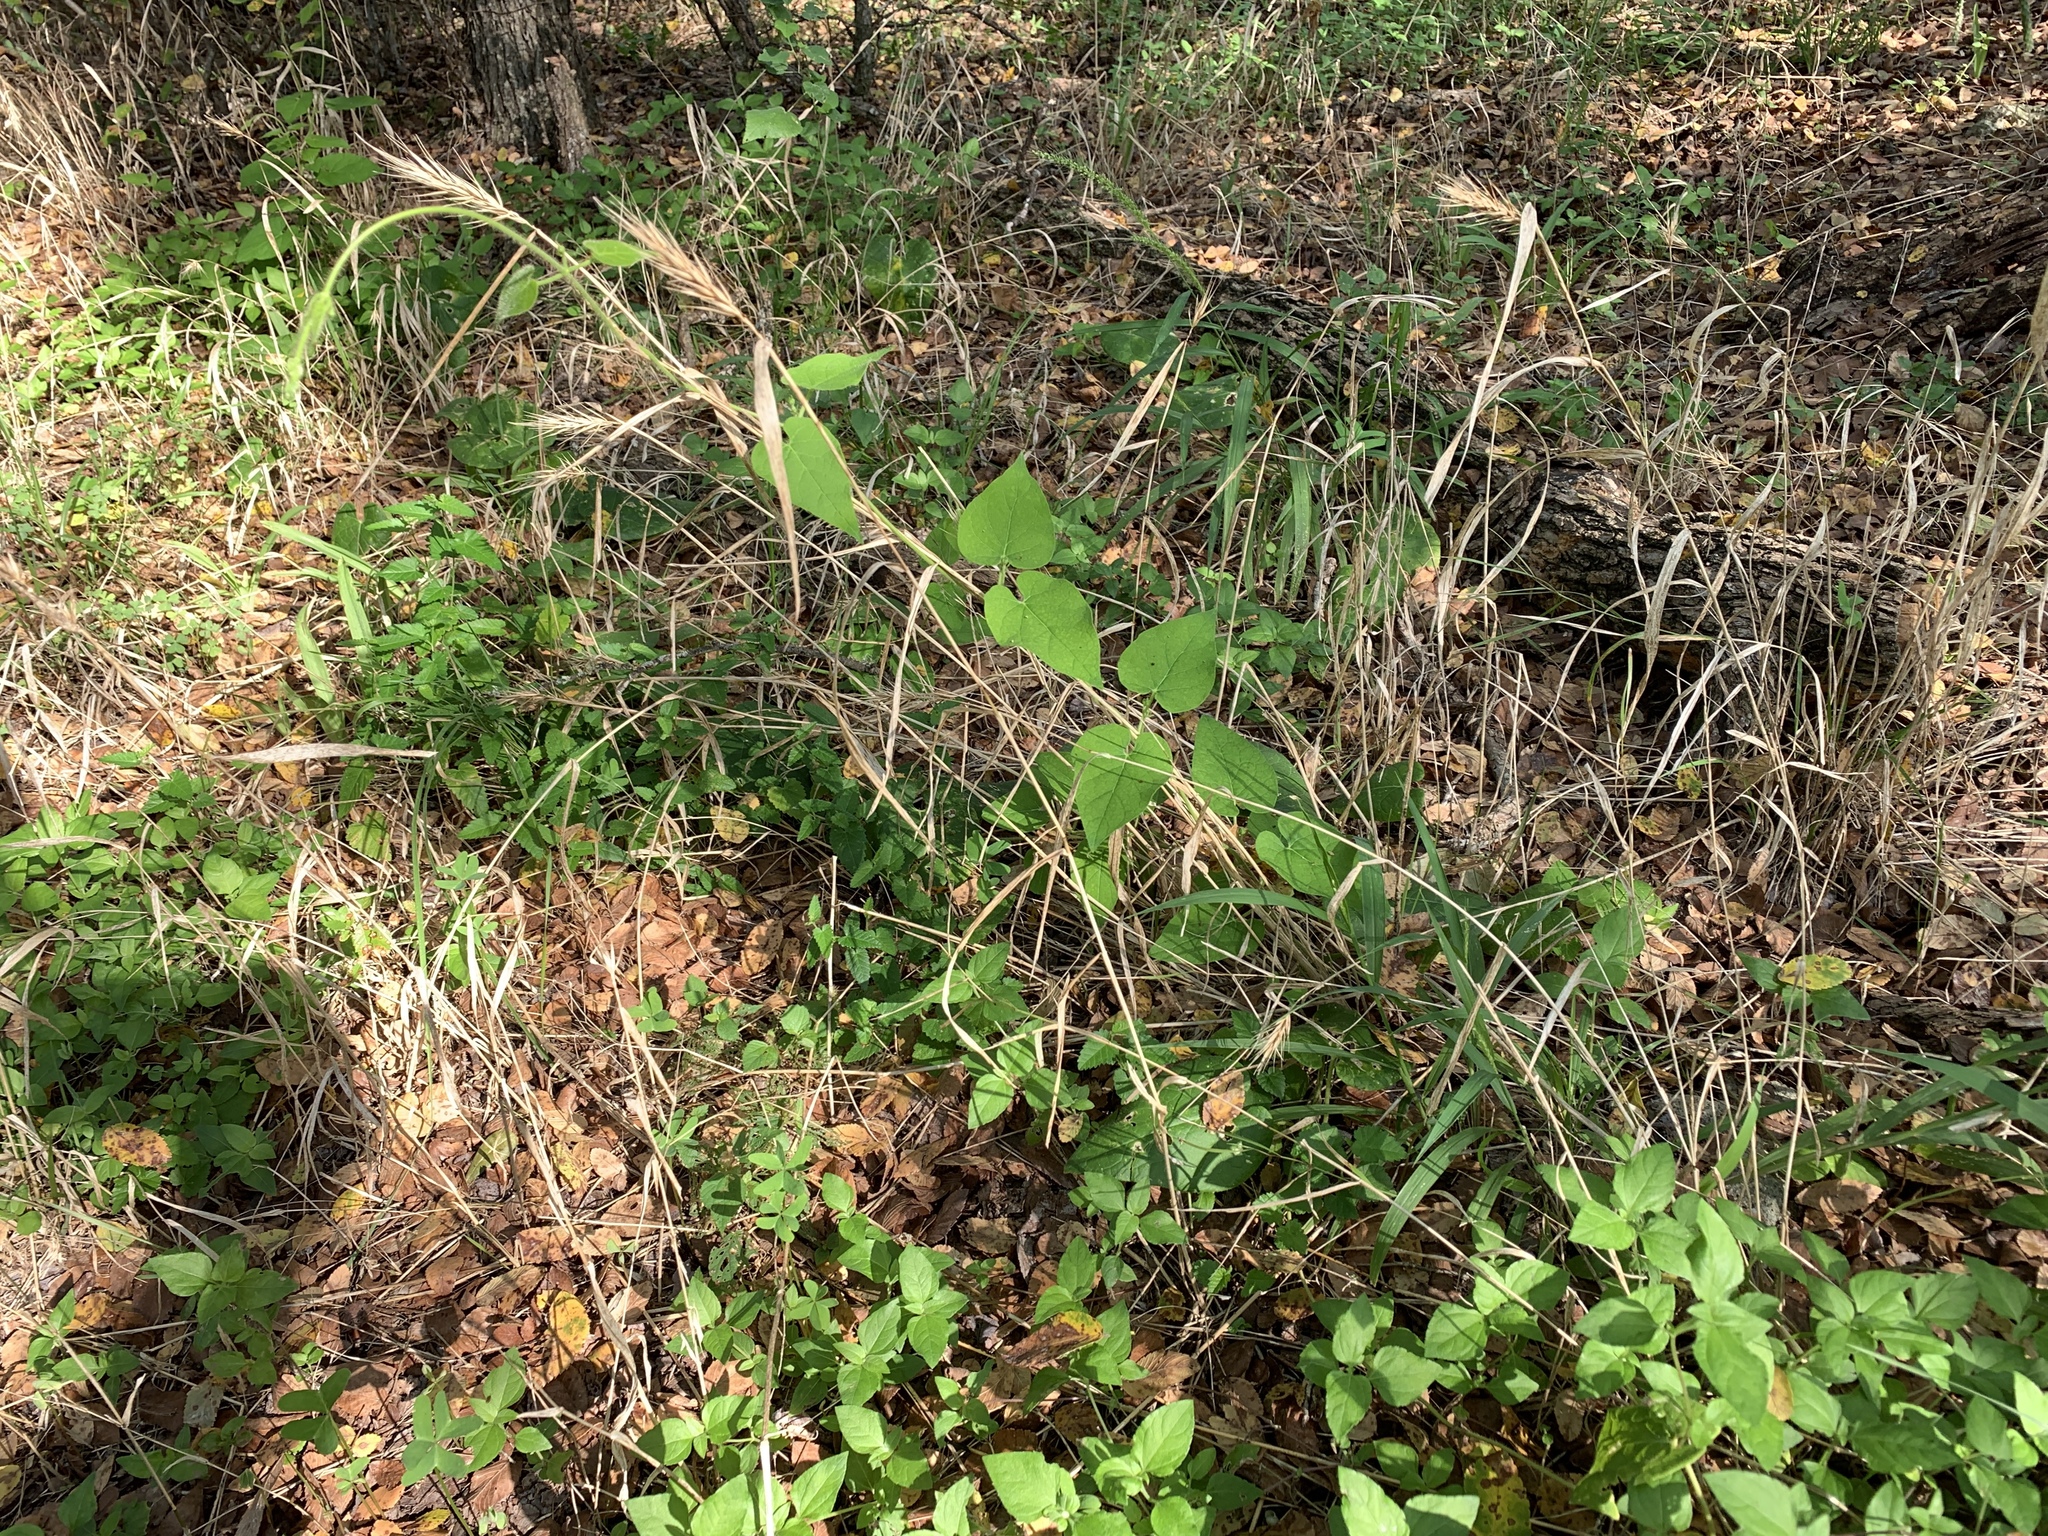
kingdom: Plantae
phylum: Tracheophyta
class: Magnoliopsida
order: Gentianales
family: Apocynaceae
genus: Dictyanthus
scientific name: Dictyanthus reticulatus
